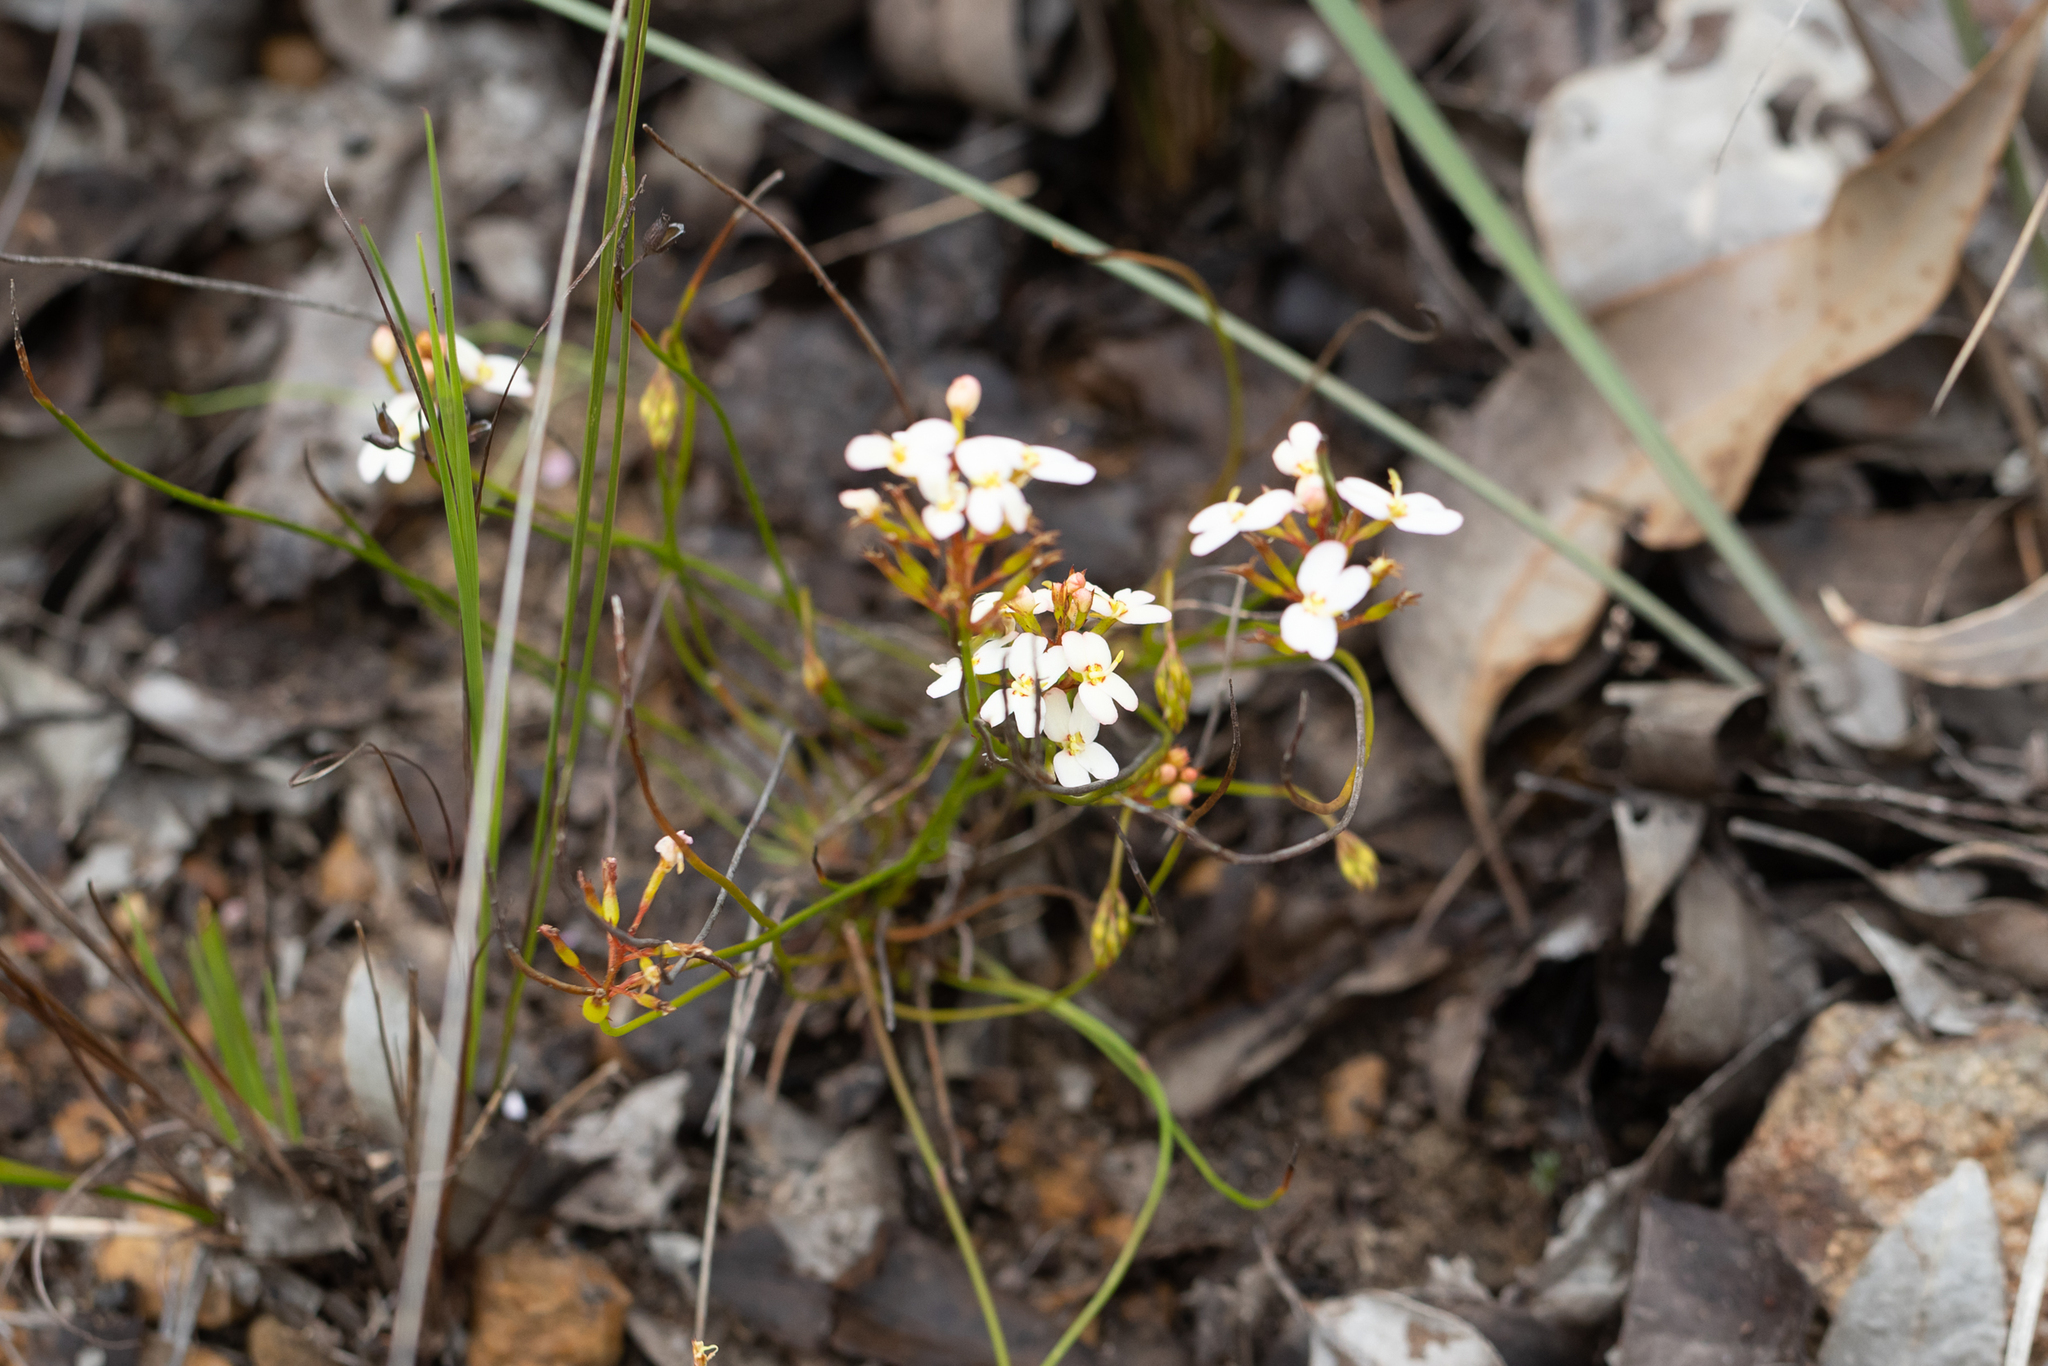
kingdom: Plantae
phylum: Tracheophyta
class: Magnoliopsida
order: Asterales
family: Stylidiaceae
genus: Stylidium
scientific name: Stylidium junceum
